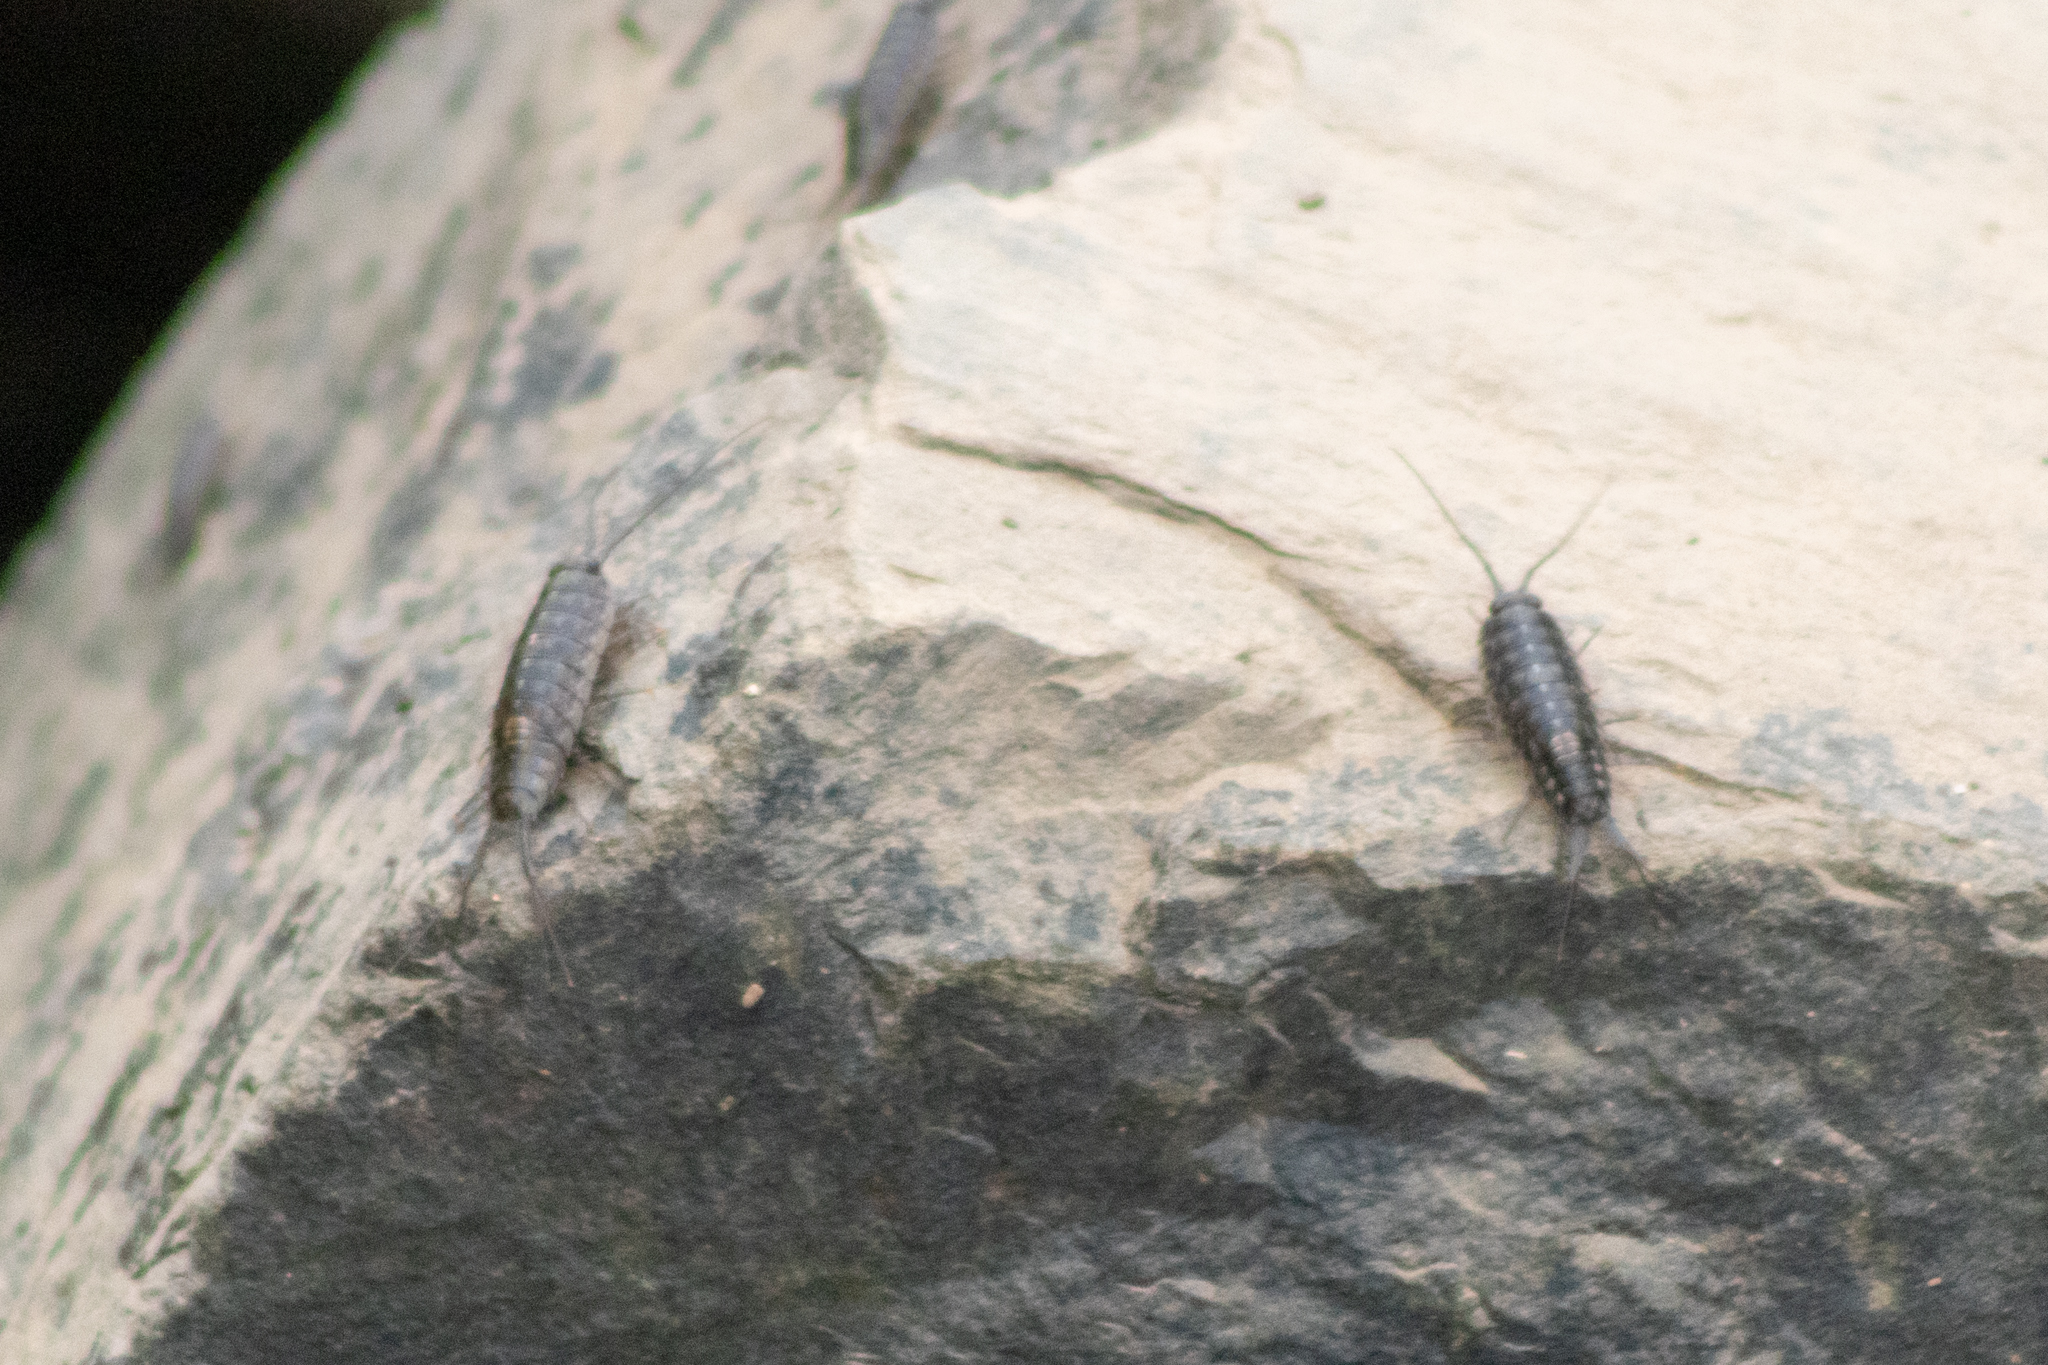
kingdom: Animalia
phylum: Arthropoda
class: Malacostraca
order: Isopoda
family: Ligiidae
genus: Ligia
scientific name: Ligia exotica
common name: Wharf roach
